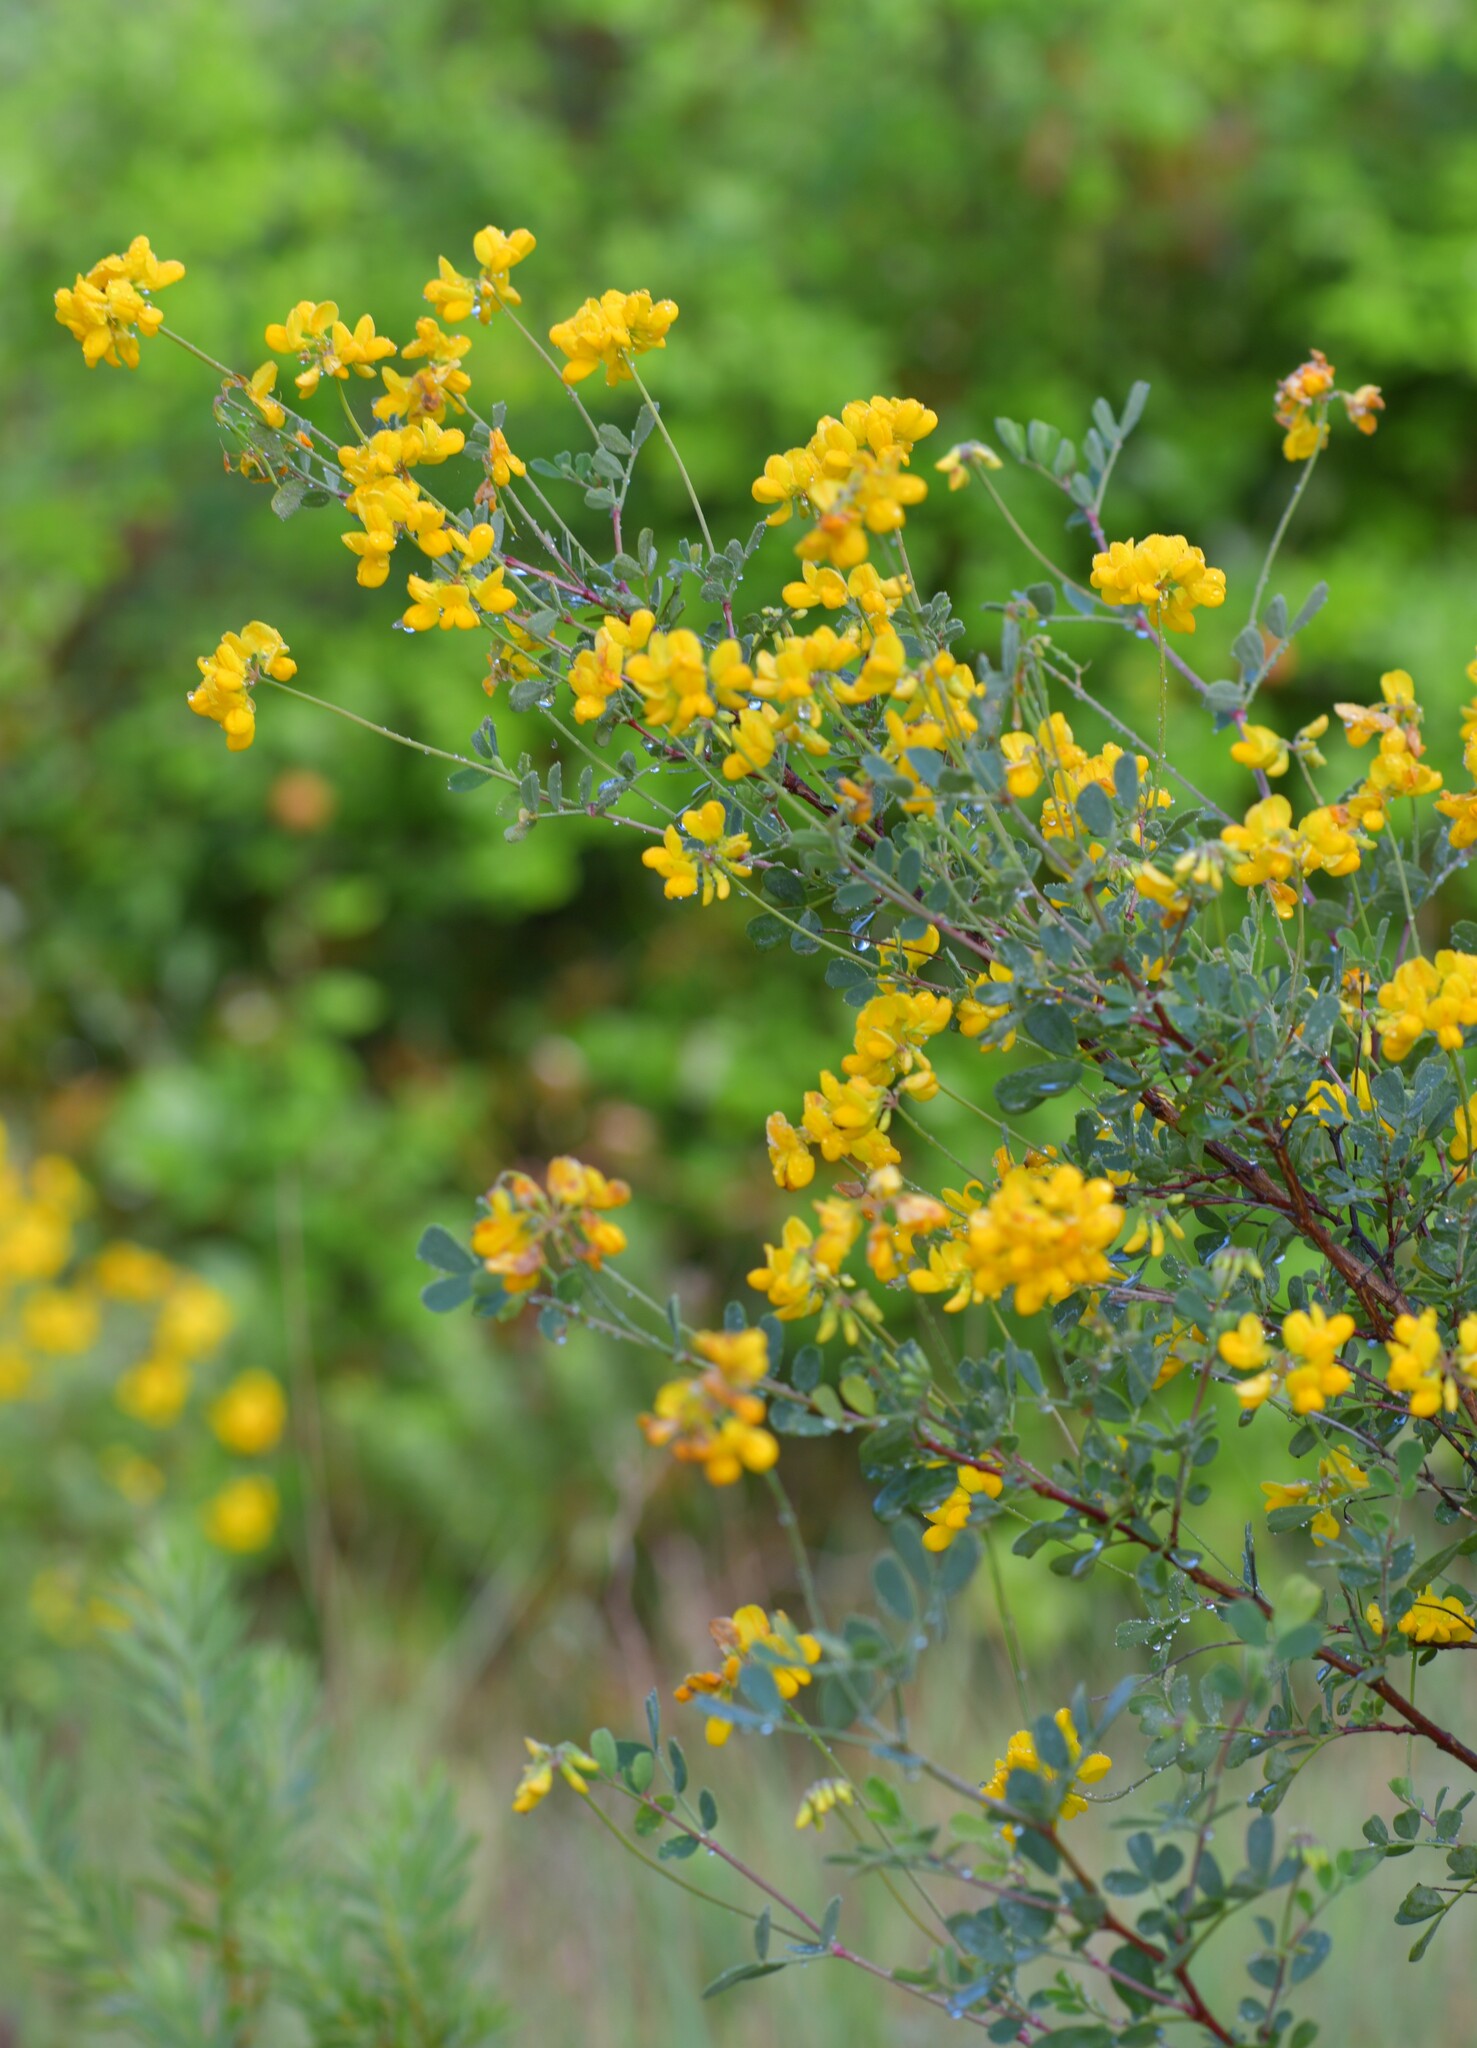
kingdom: Plantae
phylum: Tracheophyta
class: Magnoliopsida
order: Fabales
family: Fabaceae
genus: Coronilla
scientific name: Coronilla valentina
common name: Shrubby scorpion-vetch
